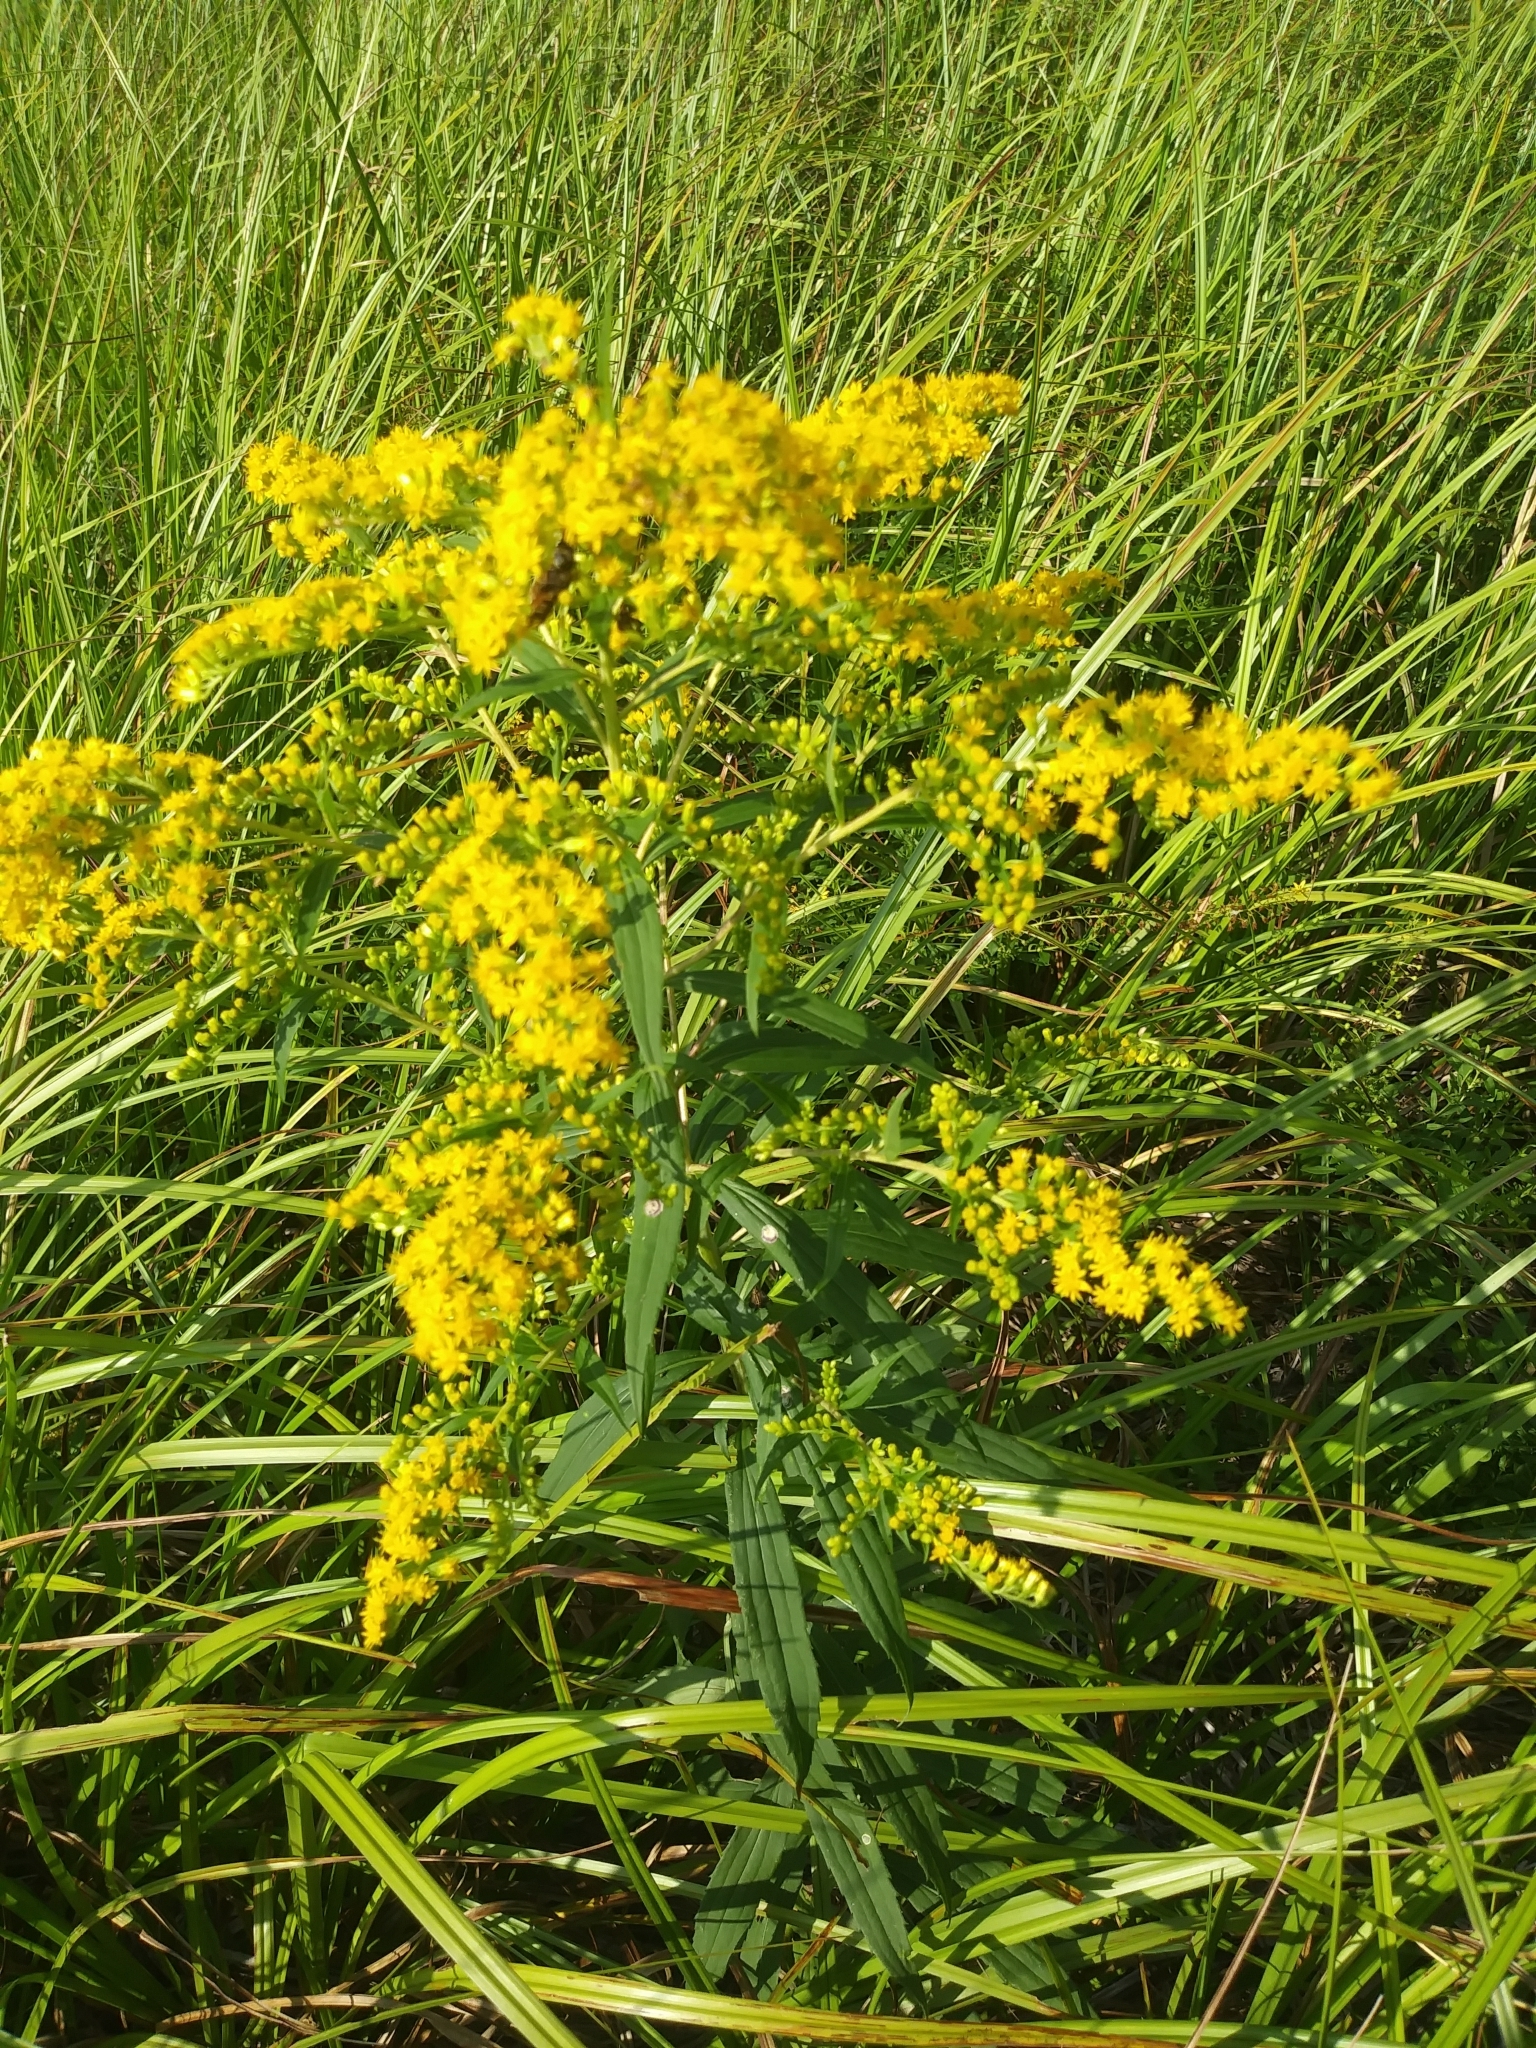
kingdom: Plantae
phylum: Tracheophyta
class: Magnoliopsida
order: Asterales
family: Asteraceae
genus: Solidago
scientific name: Solidago gigantea
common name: Giant goldenrod
